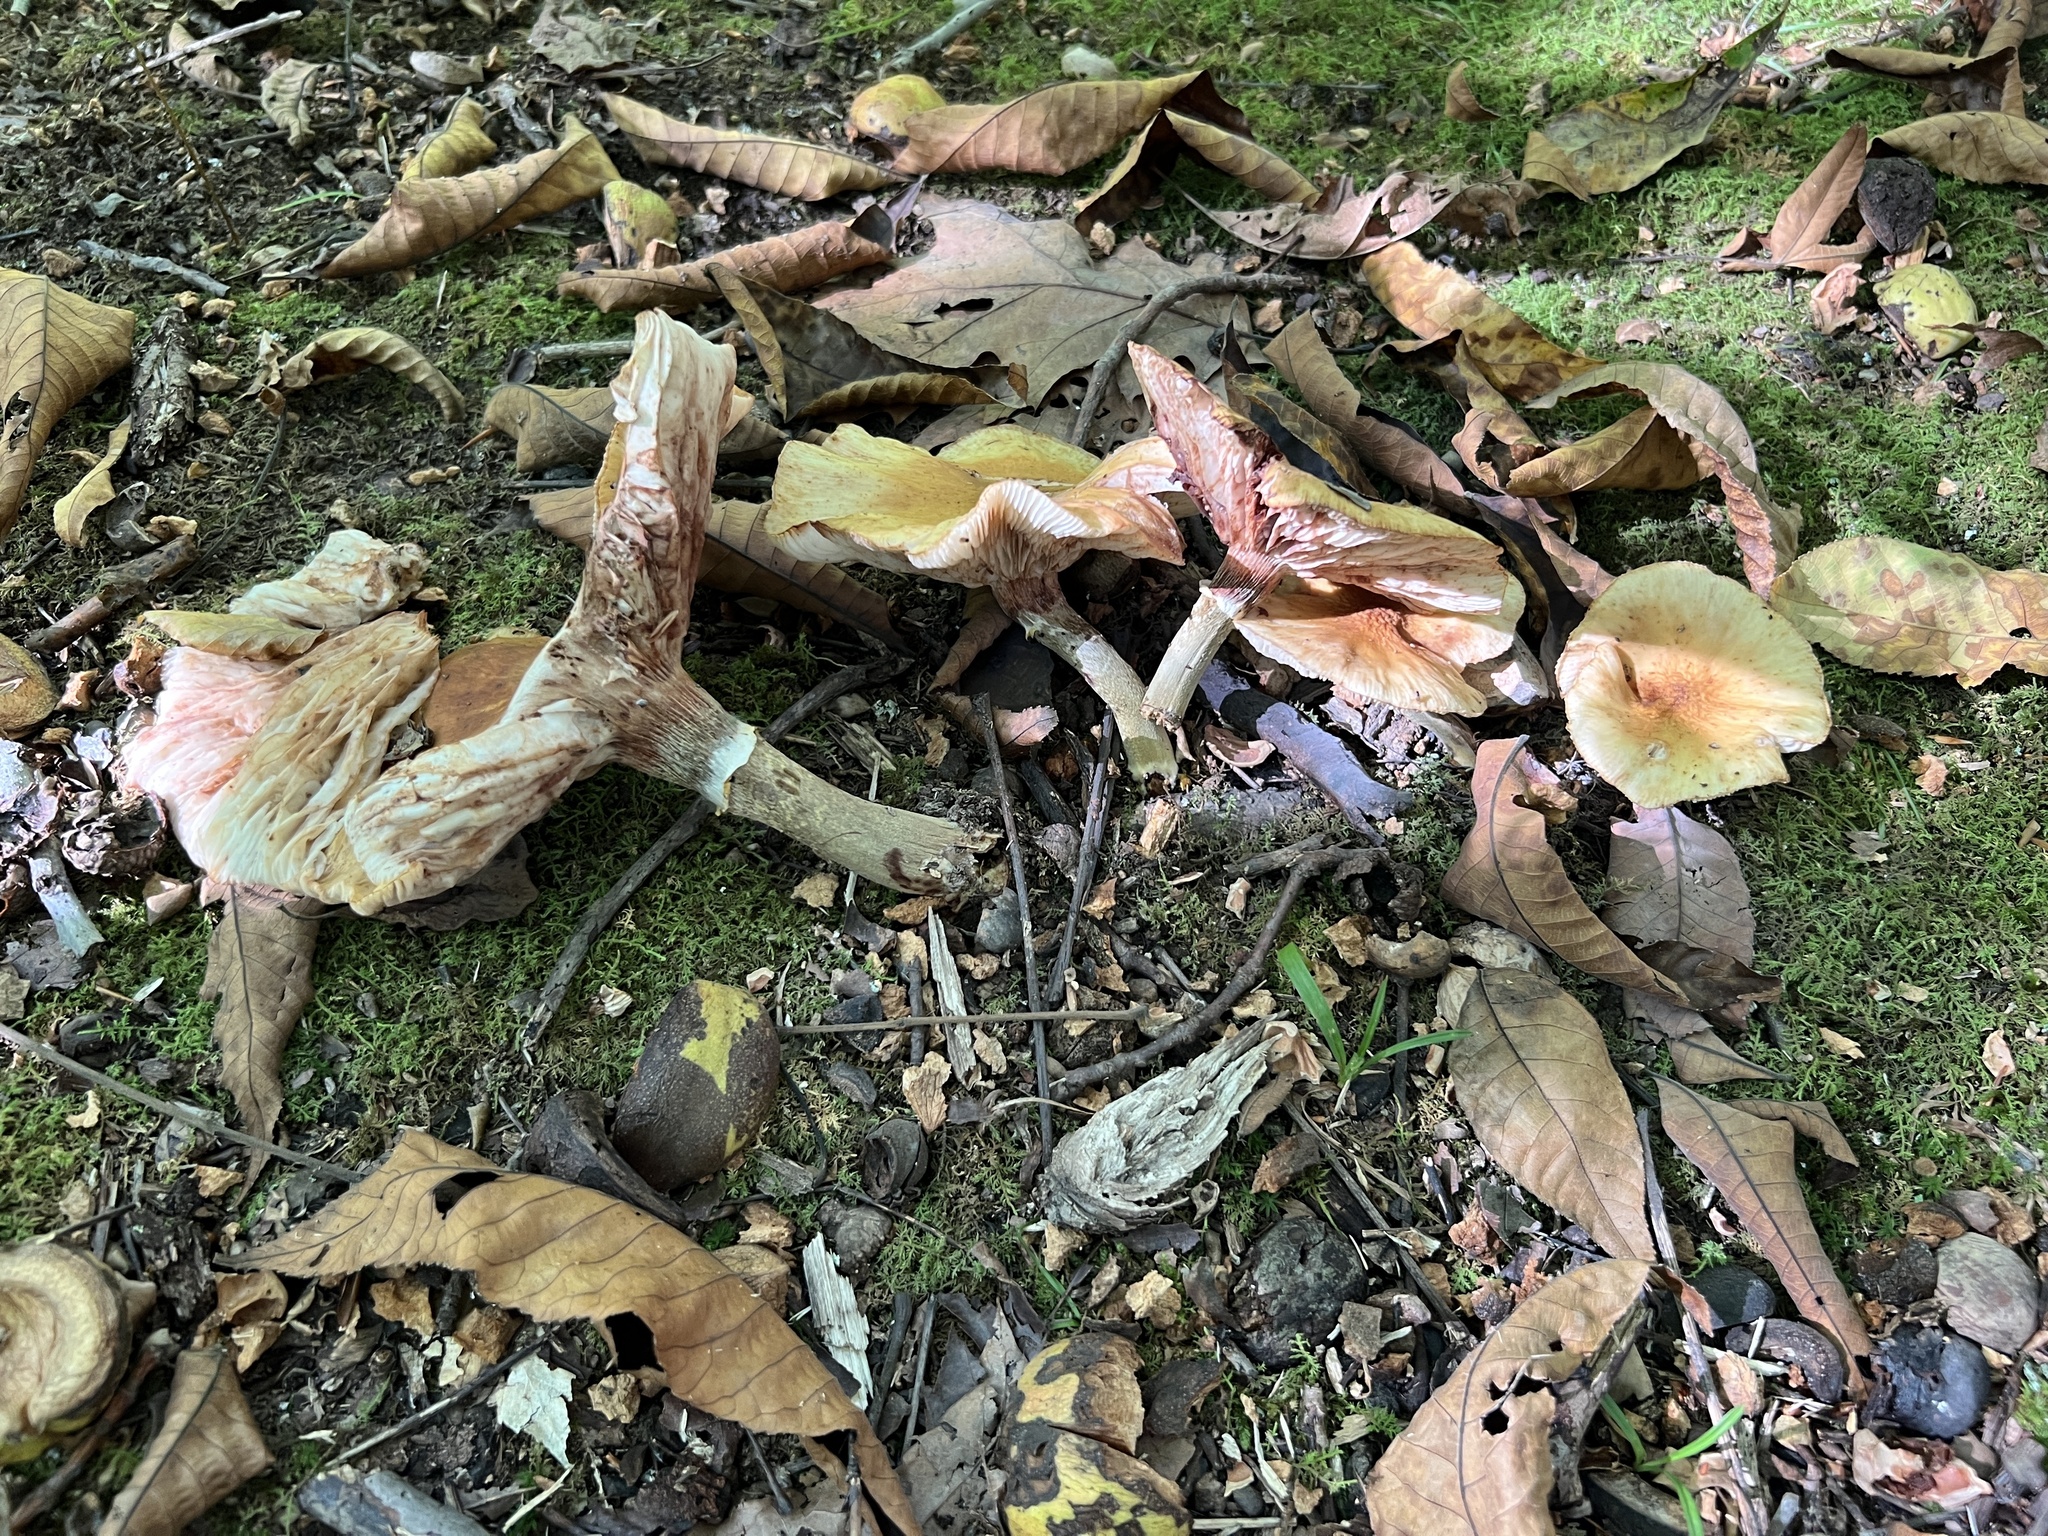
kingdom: Fungi
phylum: Basidiomycota
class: Agaricomycetes
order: Agaricales
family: Physalacriaceae
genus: Armillaria
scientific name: Armillaria mellea
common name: Honey fungus
